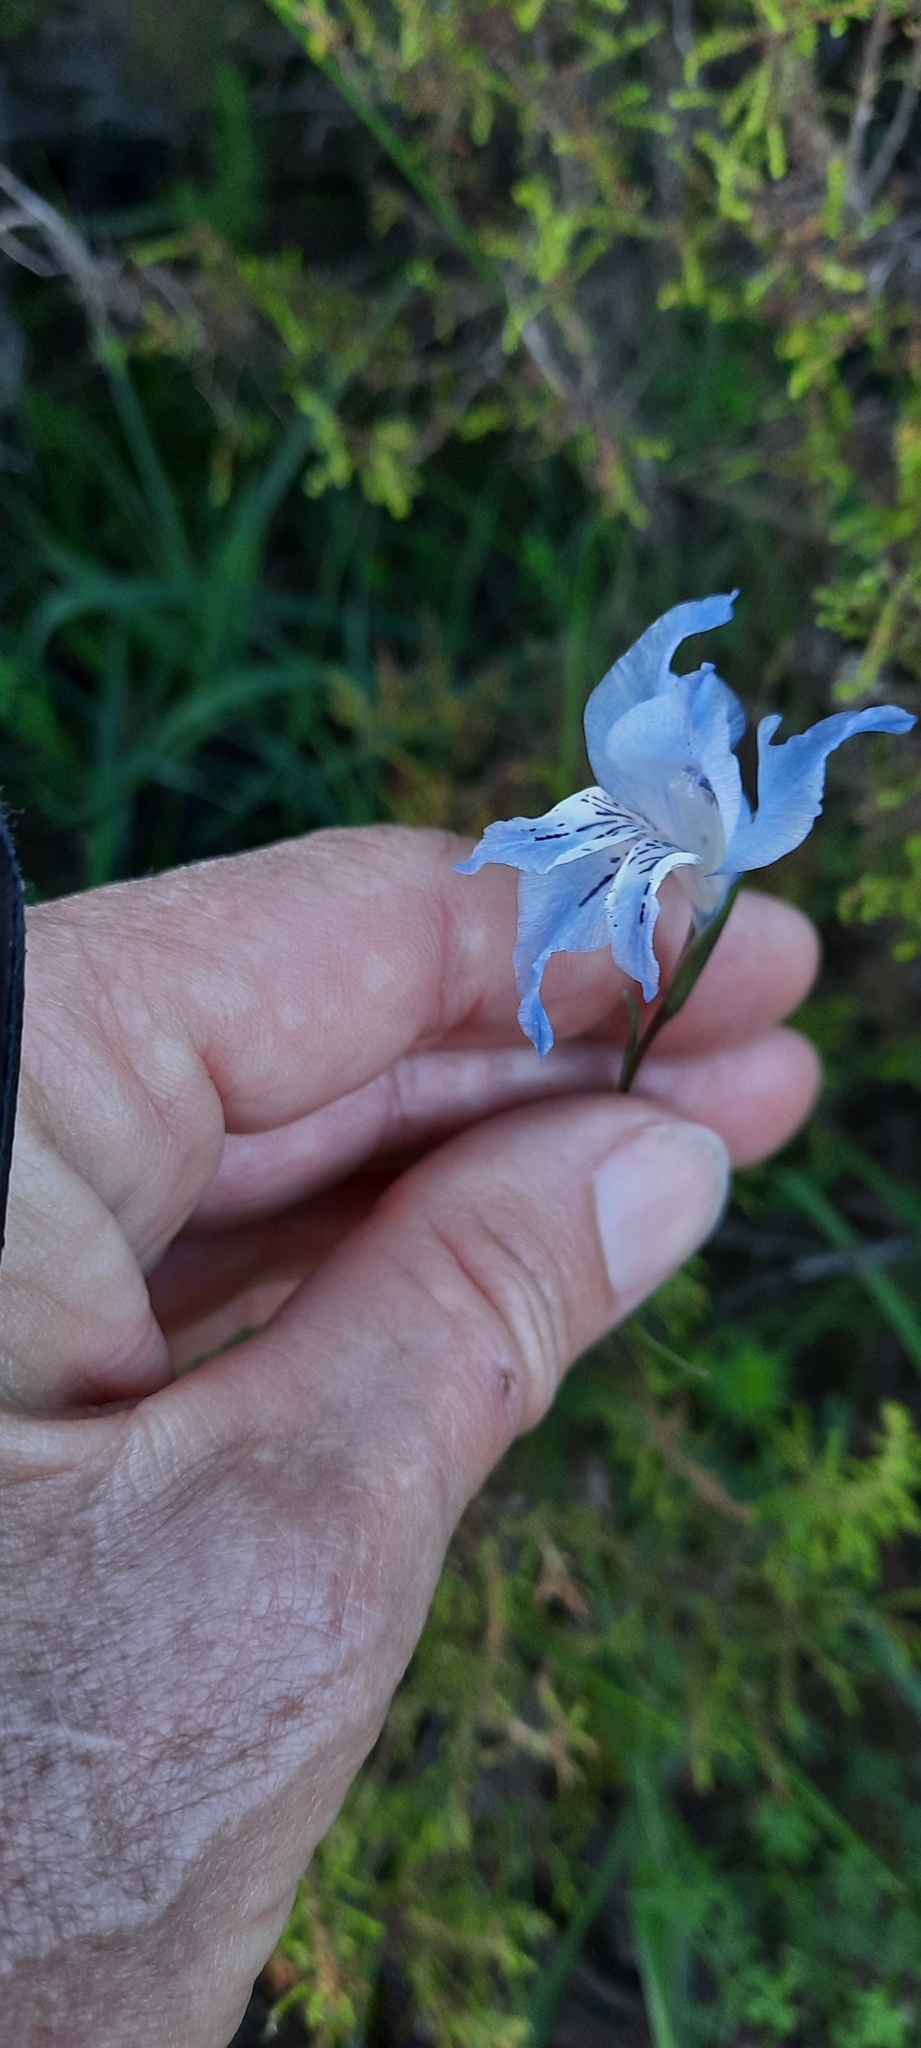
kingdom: Plantae
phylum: Tracheophyta
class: Liliopsida
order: Asparagales
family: Iridaceae
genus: Gladiolus
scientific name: Gladiolus gracilis
